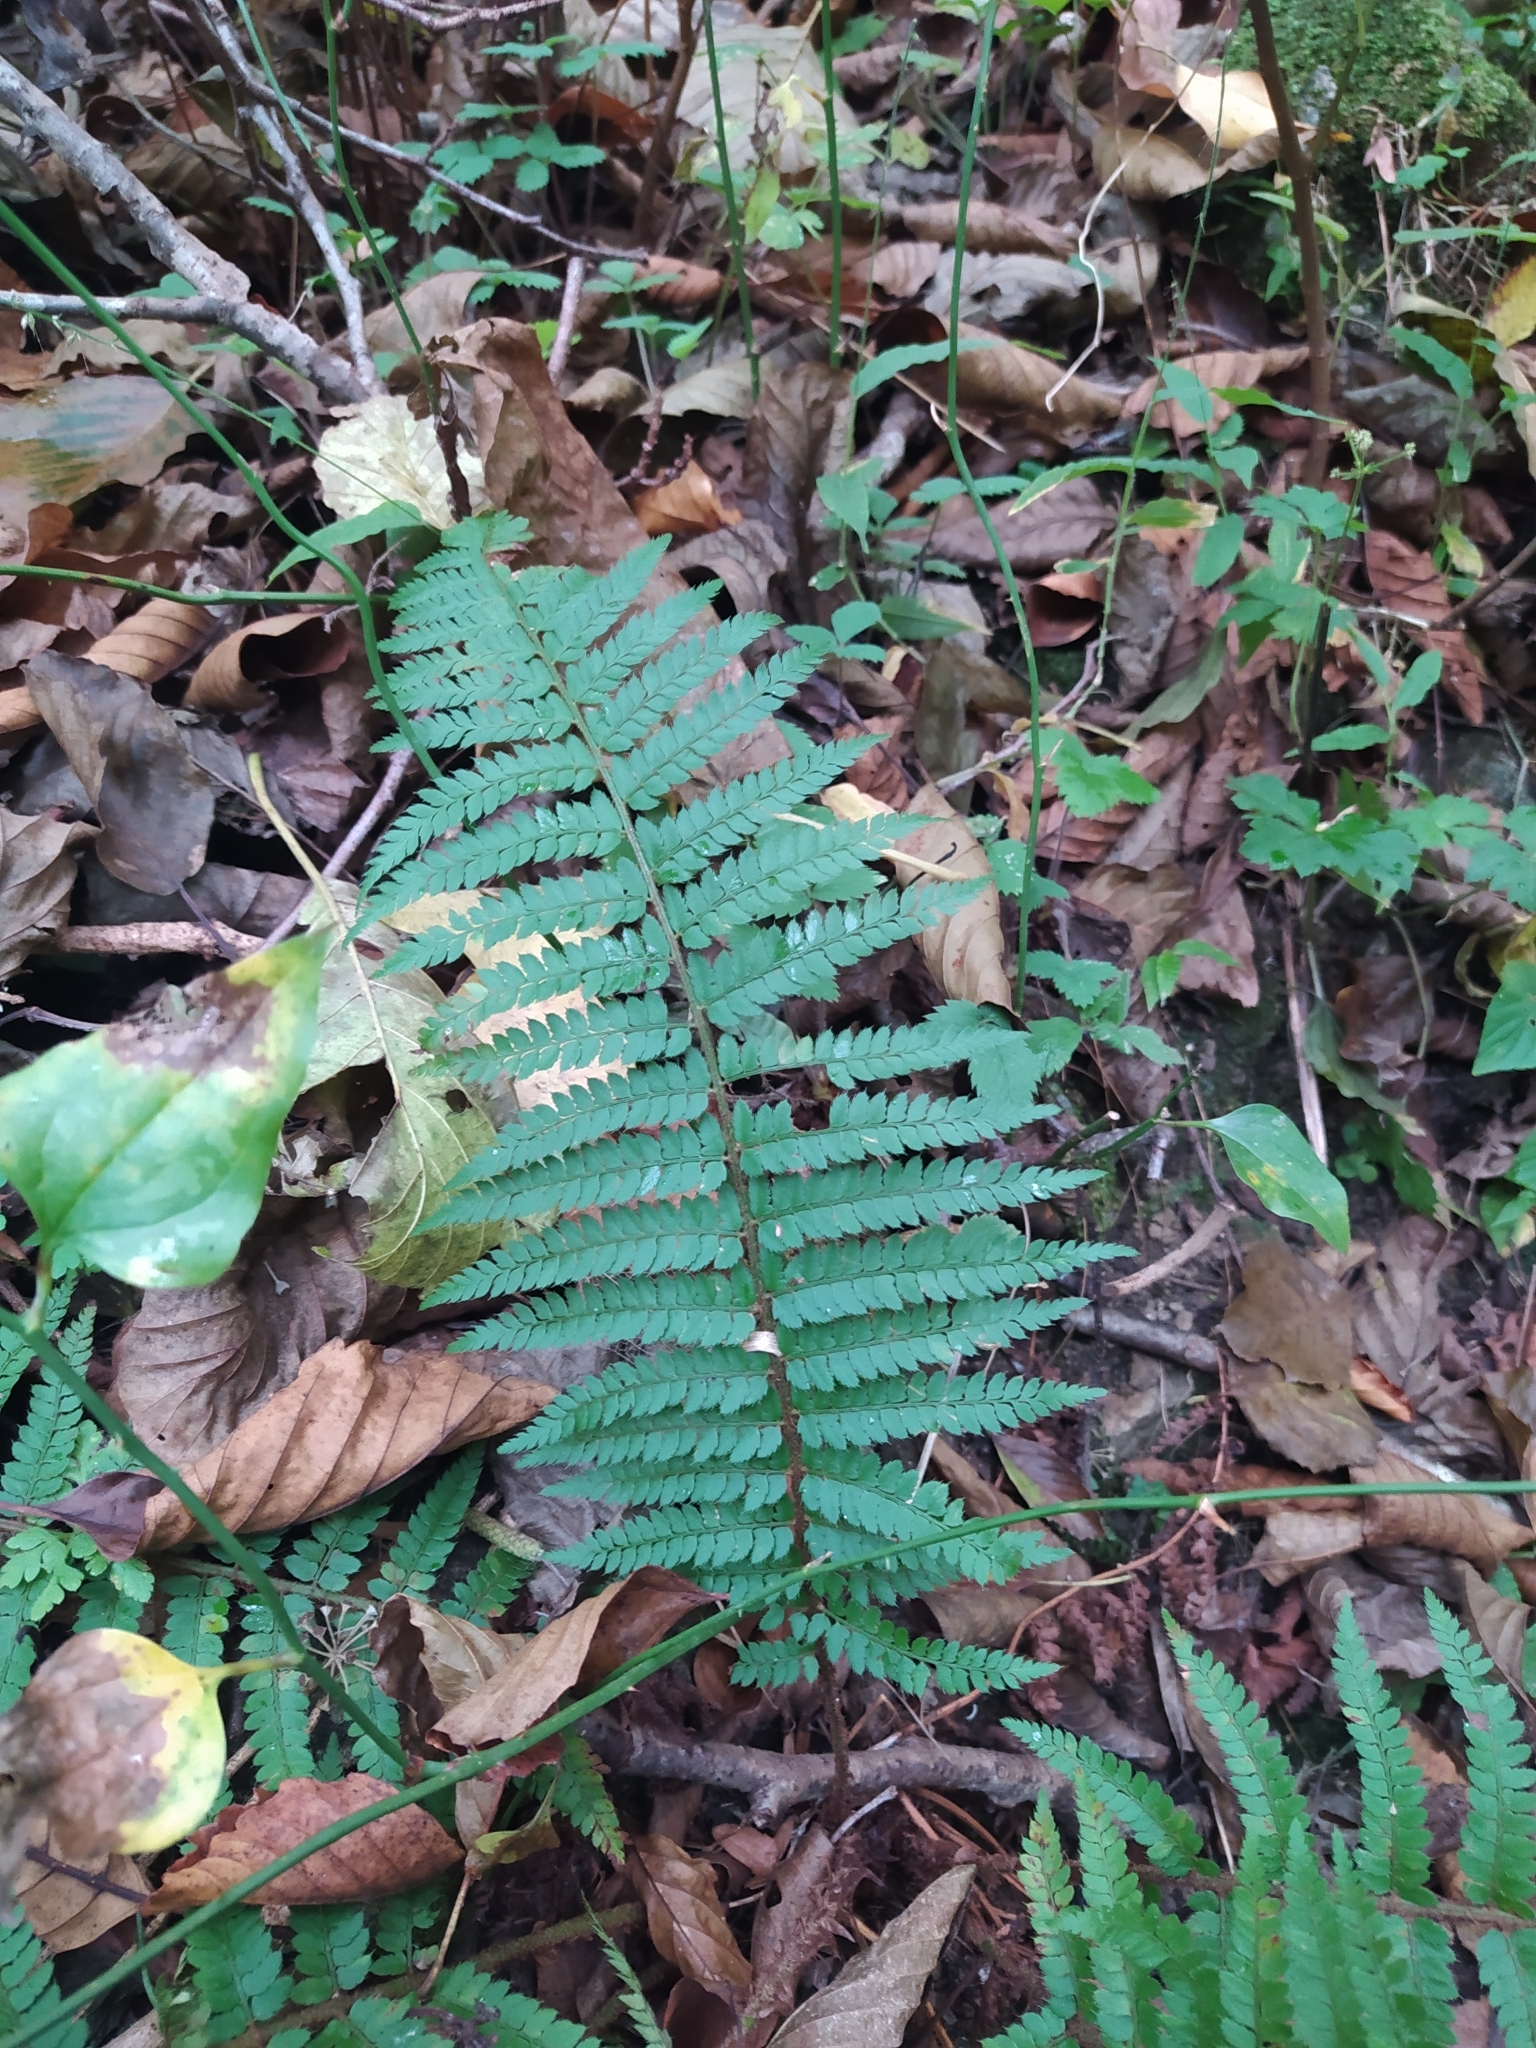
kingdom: Plantae
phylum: Tracheophyta
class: Polypodiopsida
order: Polypodiales
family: Dryopteridaceae
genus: Polystichum
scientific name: Polystichum setiferum
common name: Soft shield-fern
